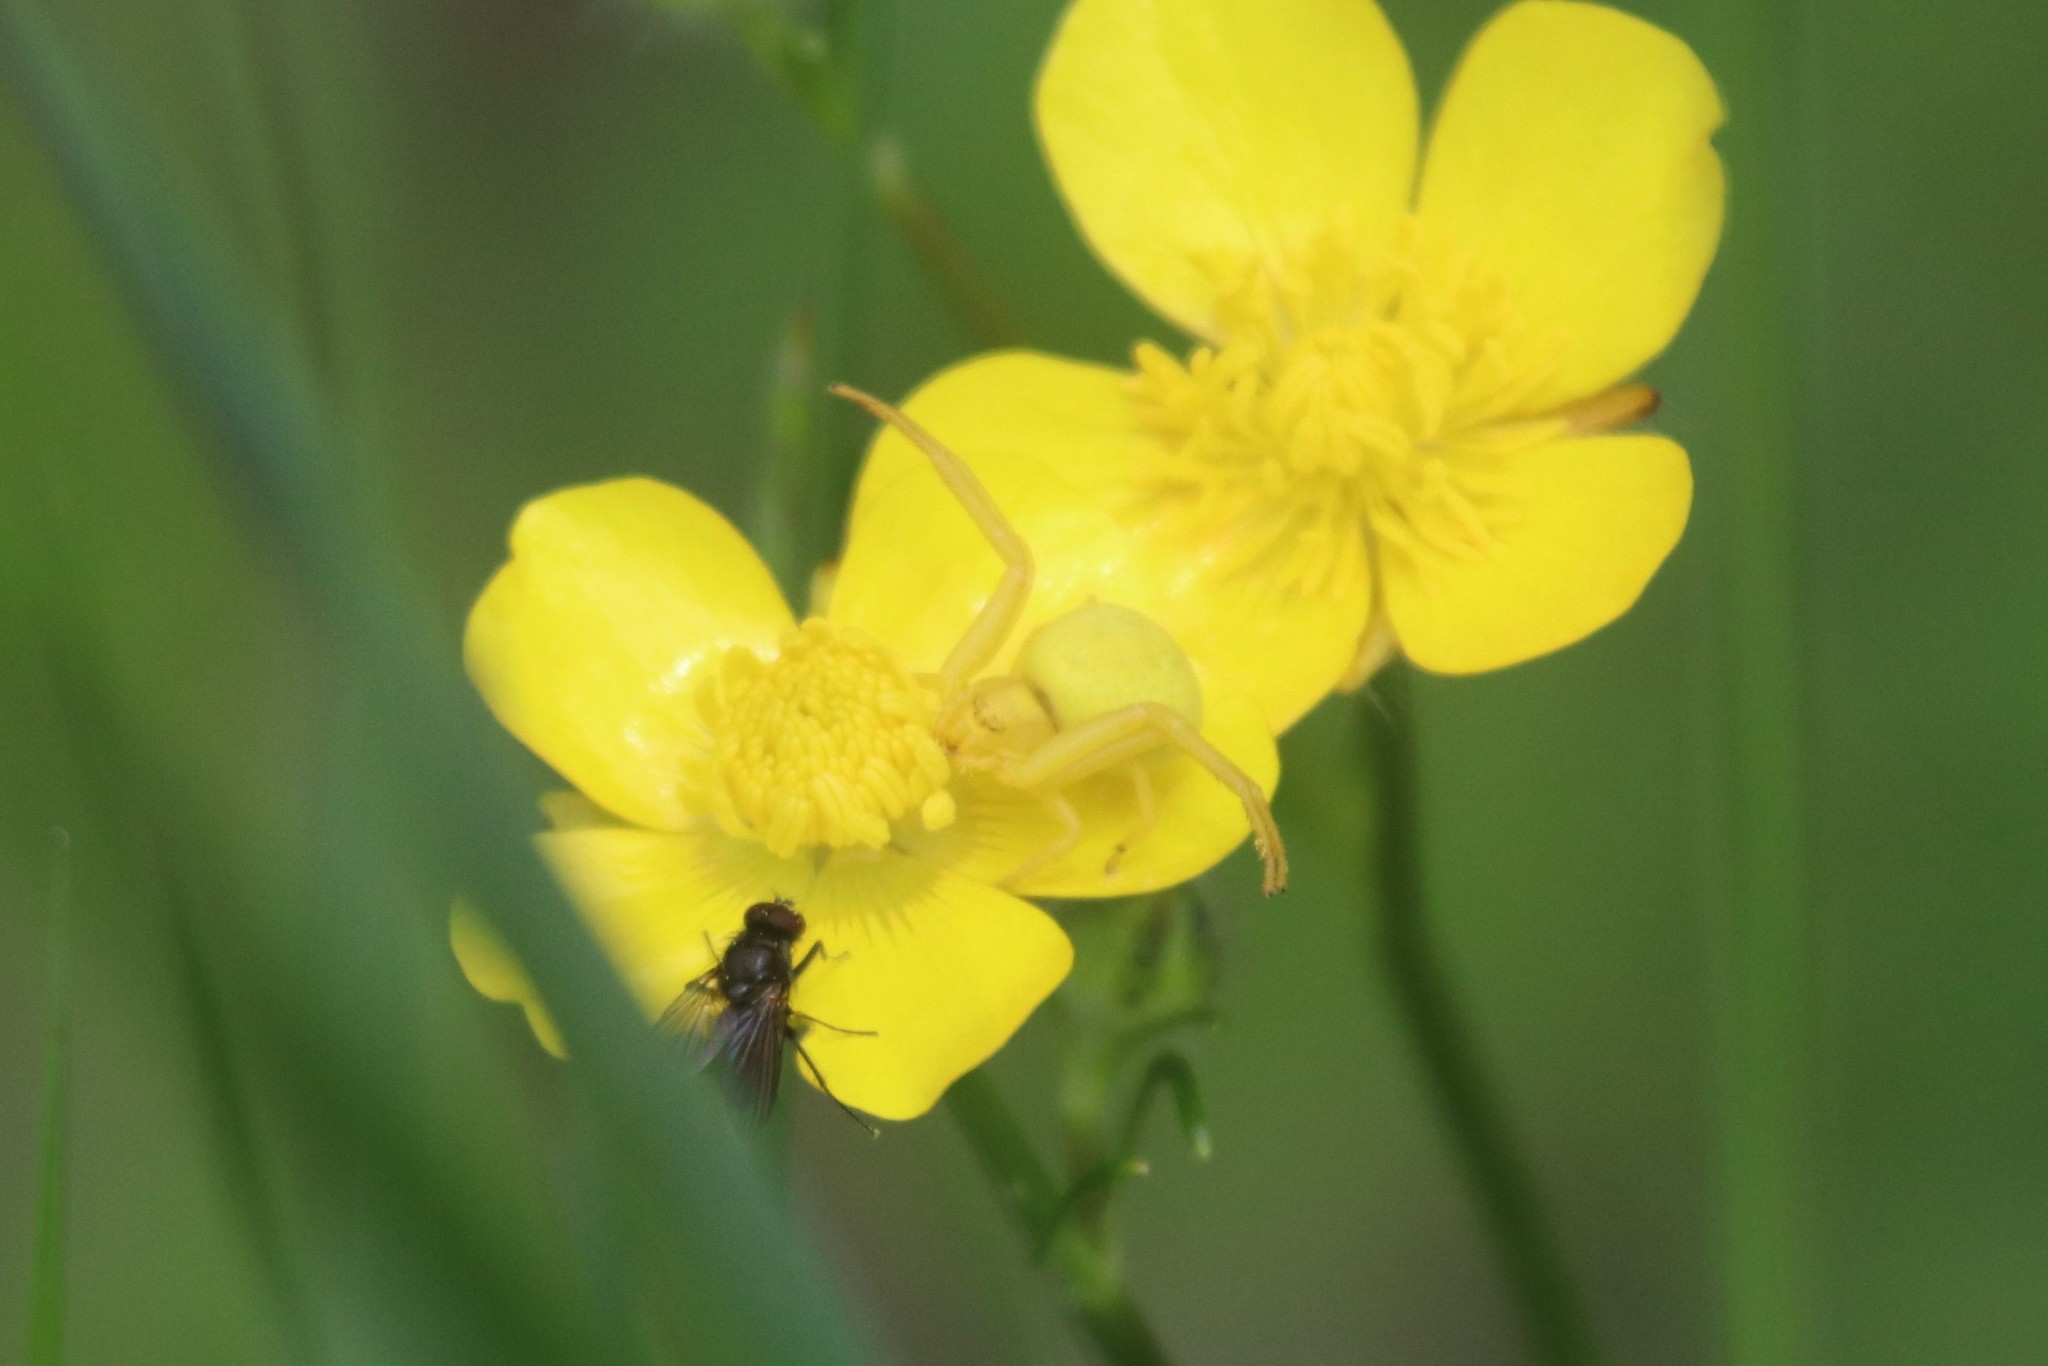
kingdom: Animalia
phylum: Arthropoda
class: Arachnida
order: Araneae
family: Thomisidae
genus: Misumena
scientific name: Misumena vatia
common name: Goldenrod crab spider
